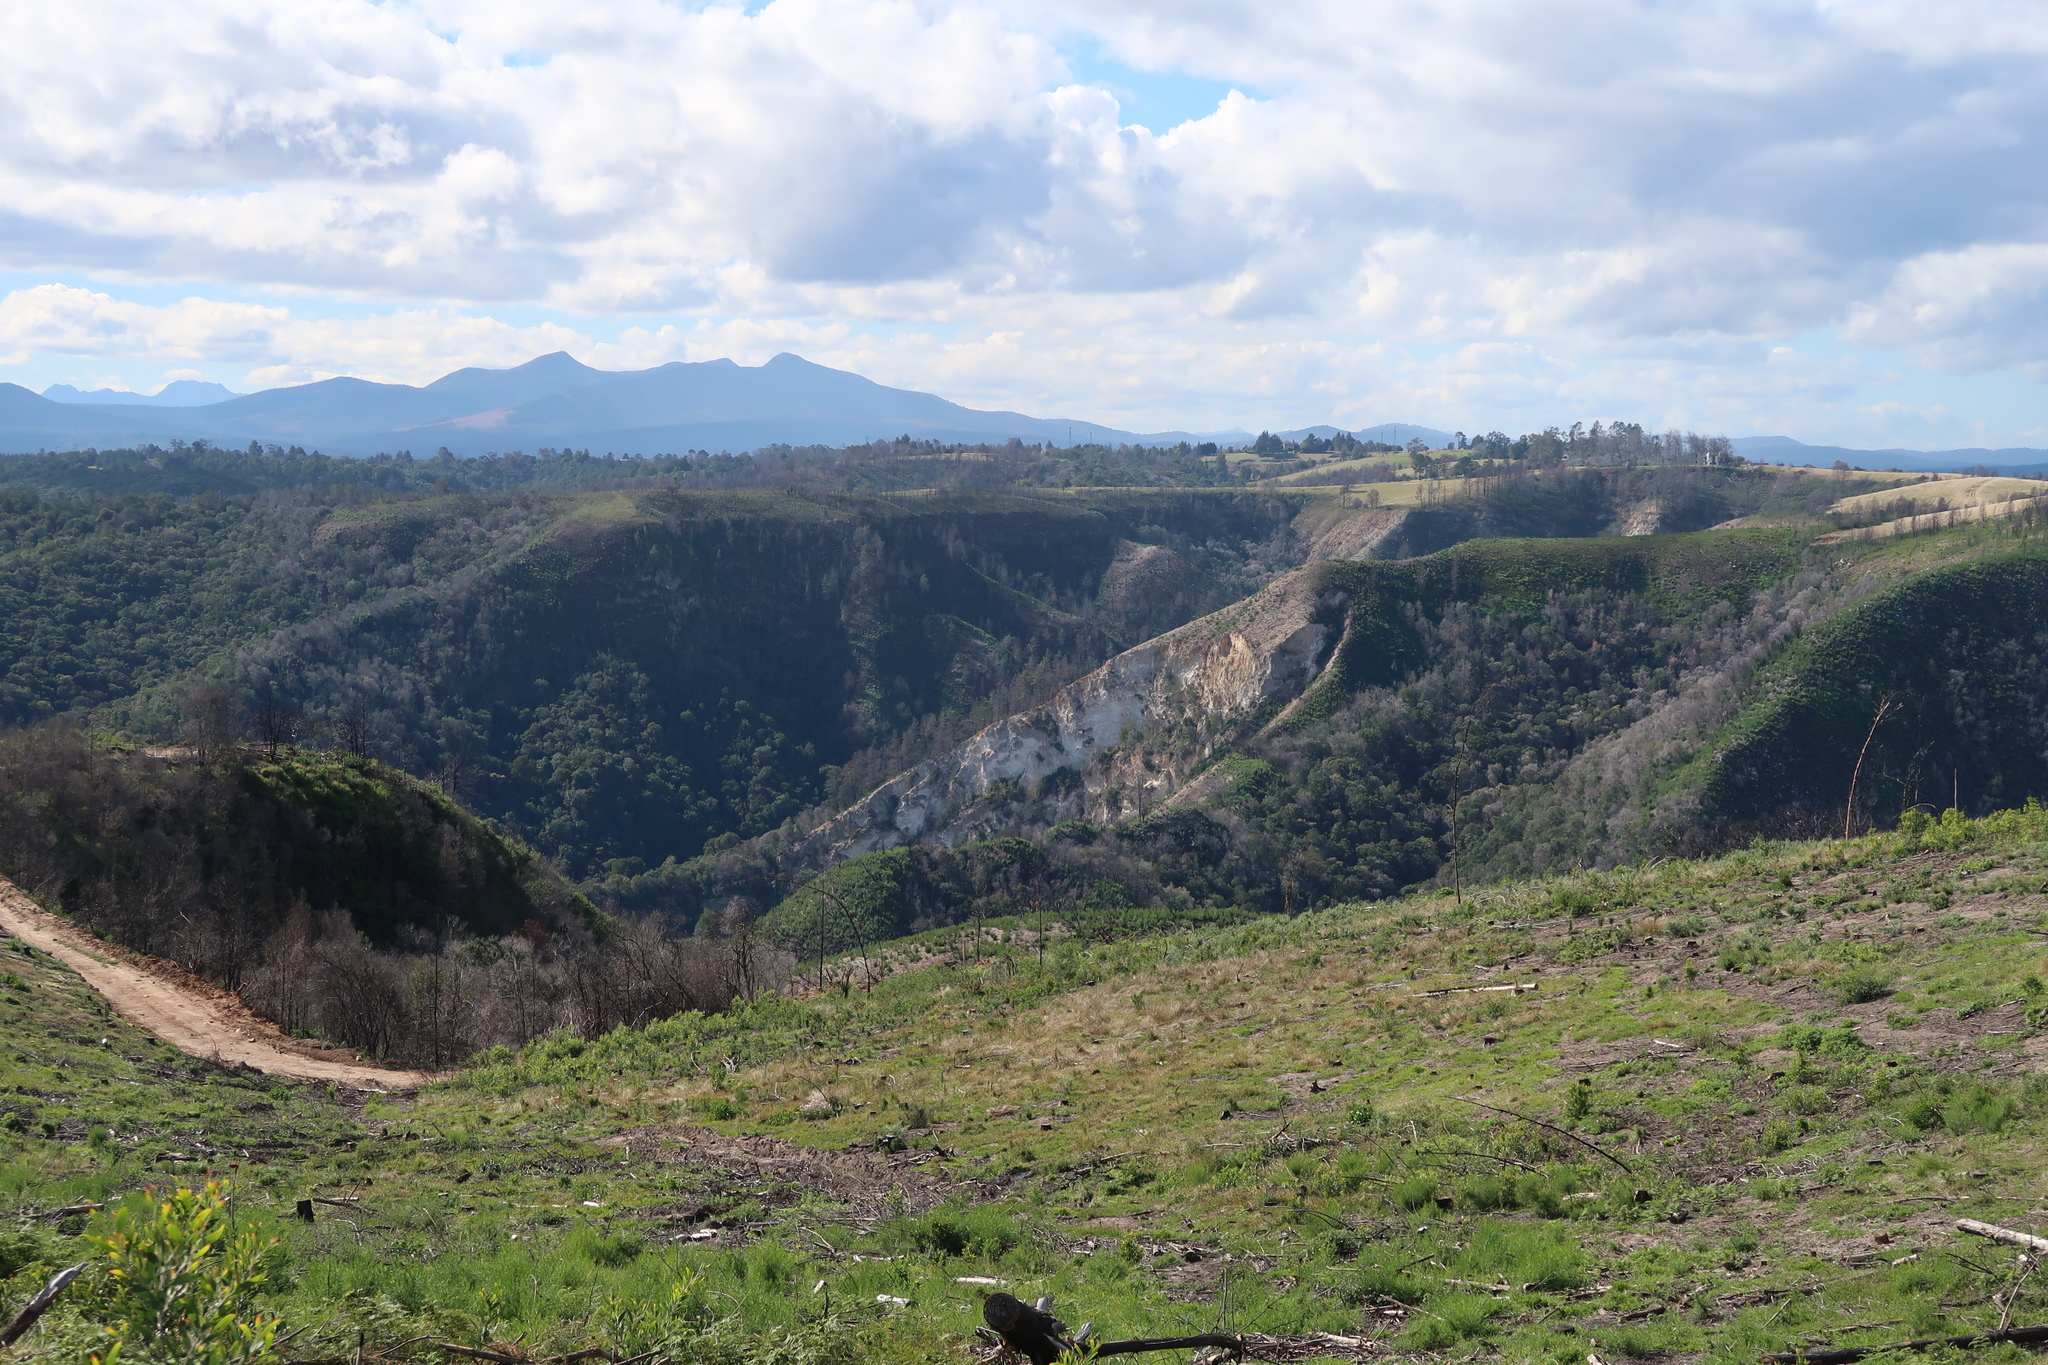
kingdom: Plantae
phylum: Tracheophyta
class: Magnoliopsida
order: Fabales
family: Fabaceae
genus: Acacia
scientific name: Acacia mearnsii
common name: Black wattle
